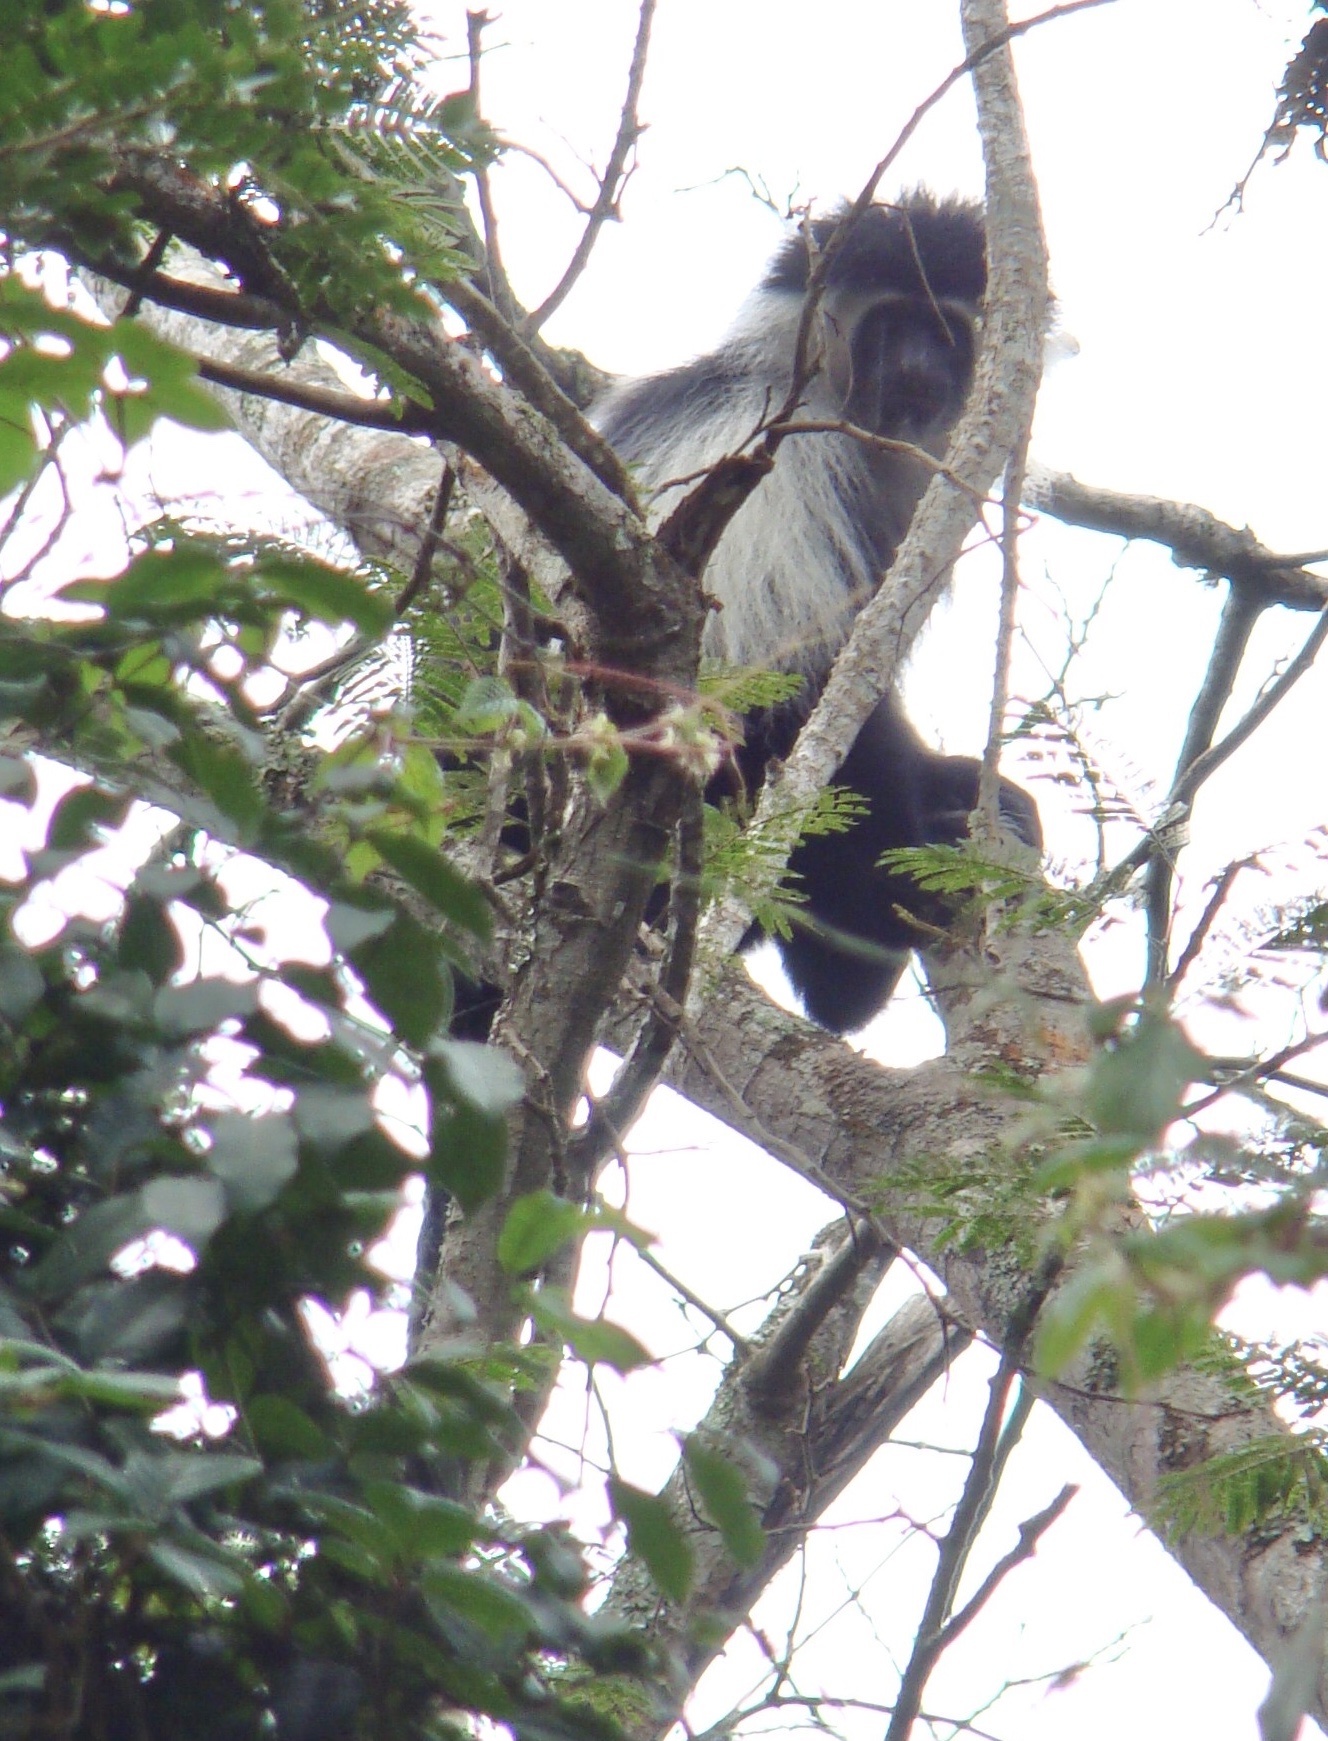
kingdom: Animalia
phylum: Chordata
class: Mammalia
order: Primates
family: Cercopithecidae
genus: Colobus
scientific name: Colobus angolensis
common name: Angola colobus
